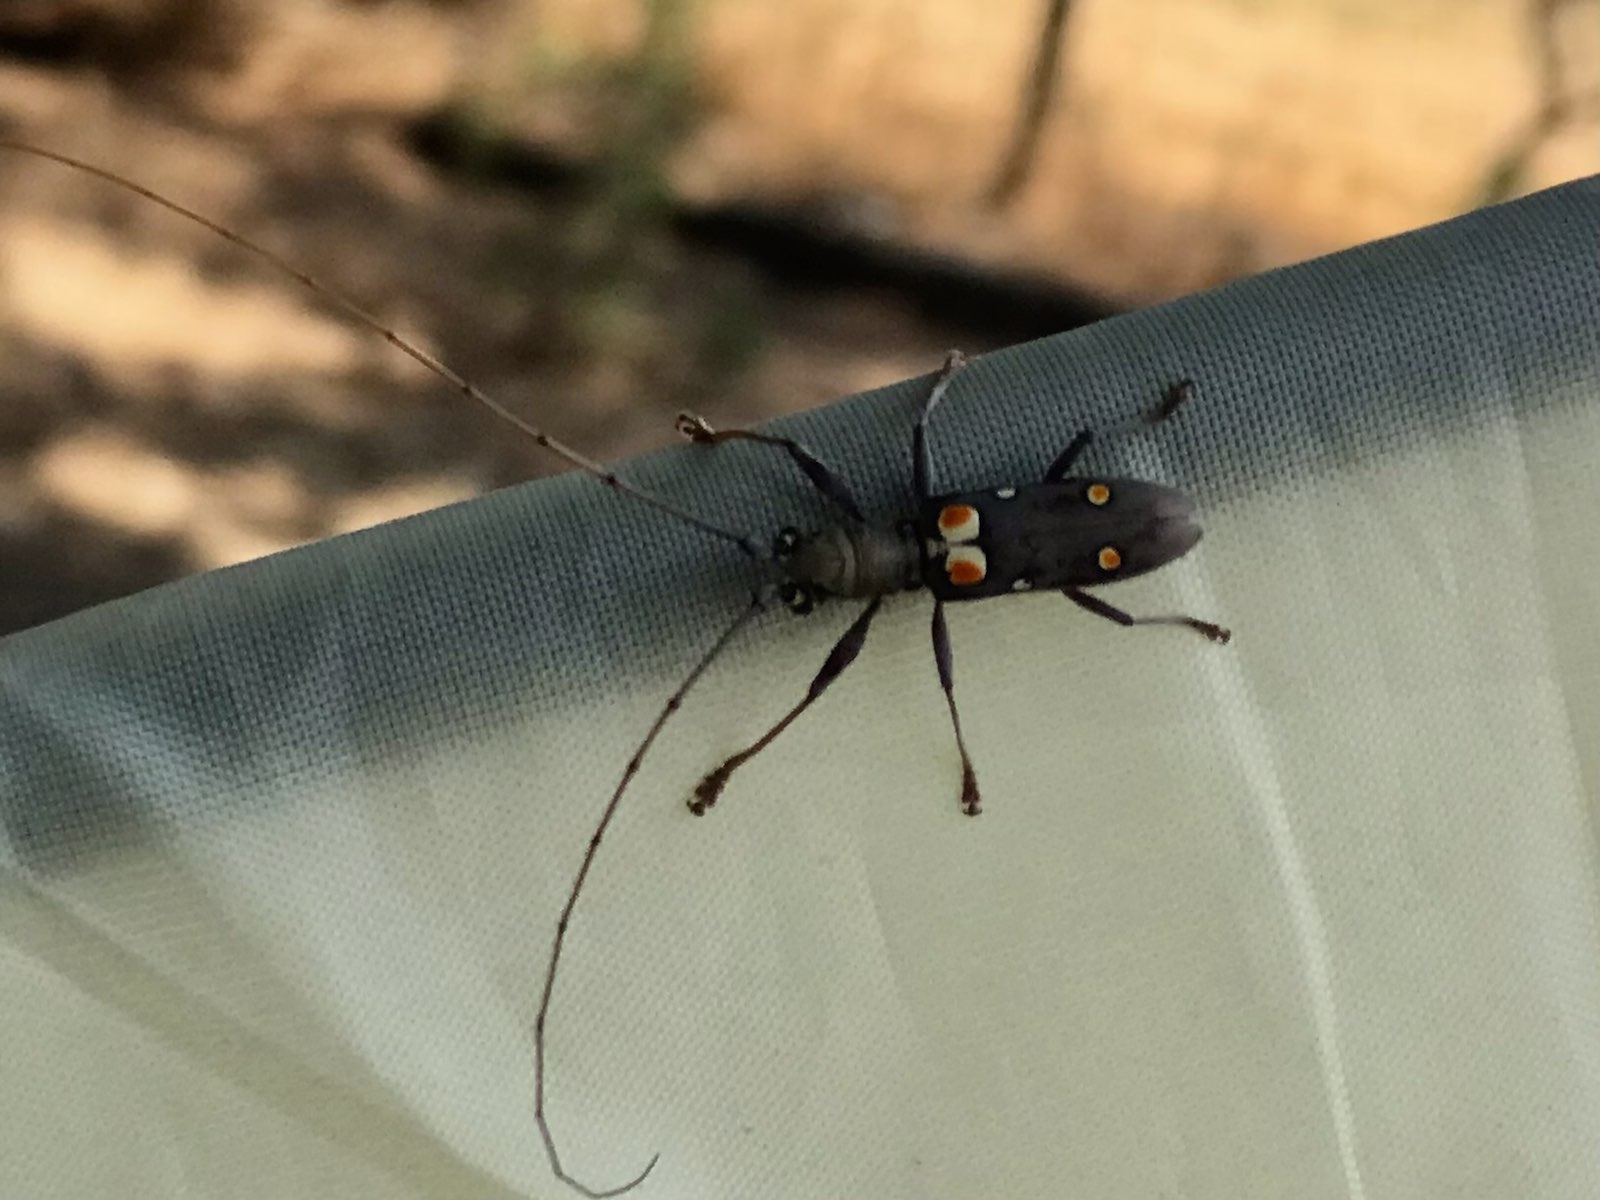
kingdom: Animalia
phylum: Arthropoda
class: Insecta
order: Coleoptera
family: Cerambycidae
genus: Olenecamptus
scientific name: Olenecamptus bilobus
